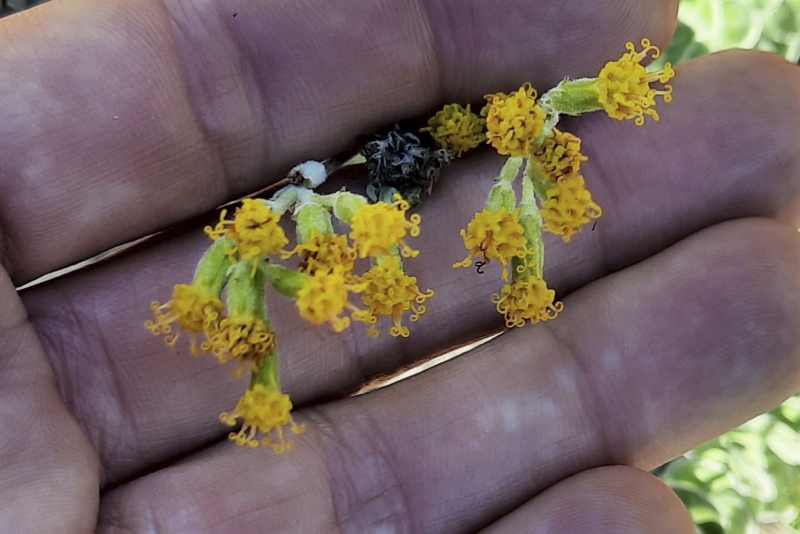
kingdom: Plantae
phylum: Tracheophyta
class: Magnoliopsida
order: Asterales
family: Asteraceae
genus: Senecio
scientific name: Senecio pauciflosculosus
